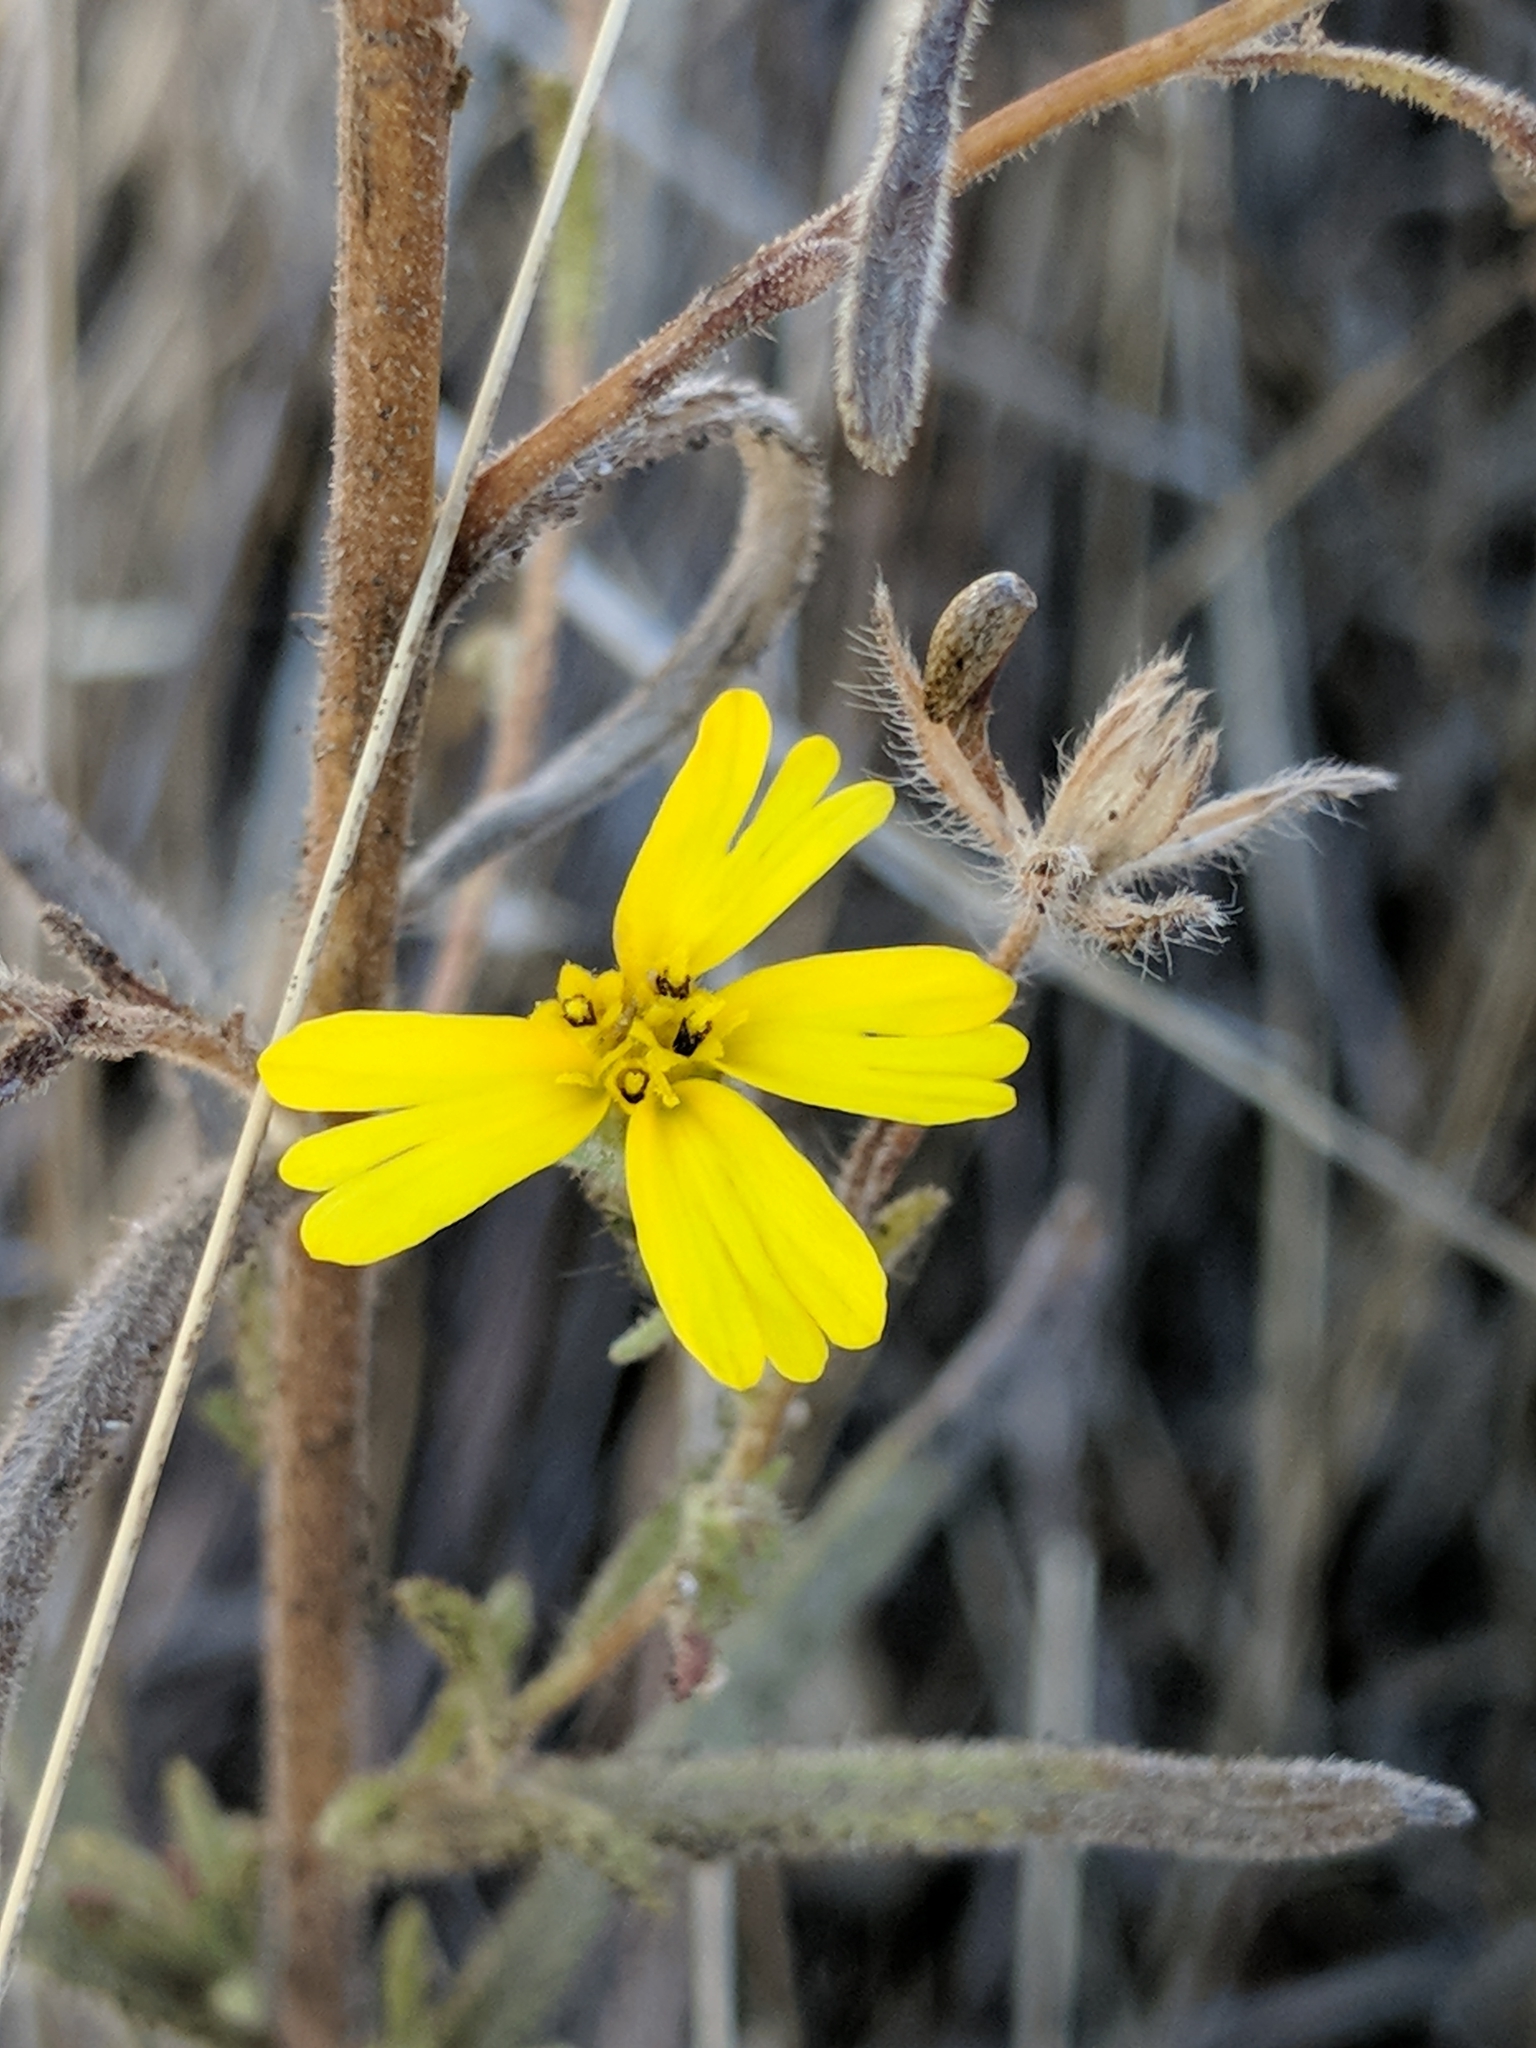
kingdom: Plantae
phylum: Tracheophyta
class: Magnoliopsida
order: Asterales
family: Asteraceae
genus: Madia
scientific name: Madia elegans
